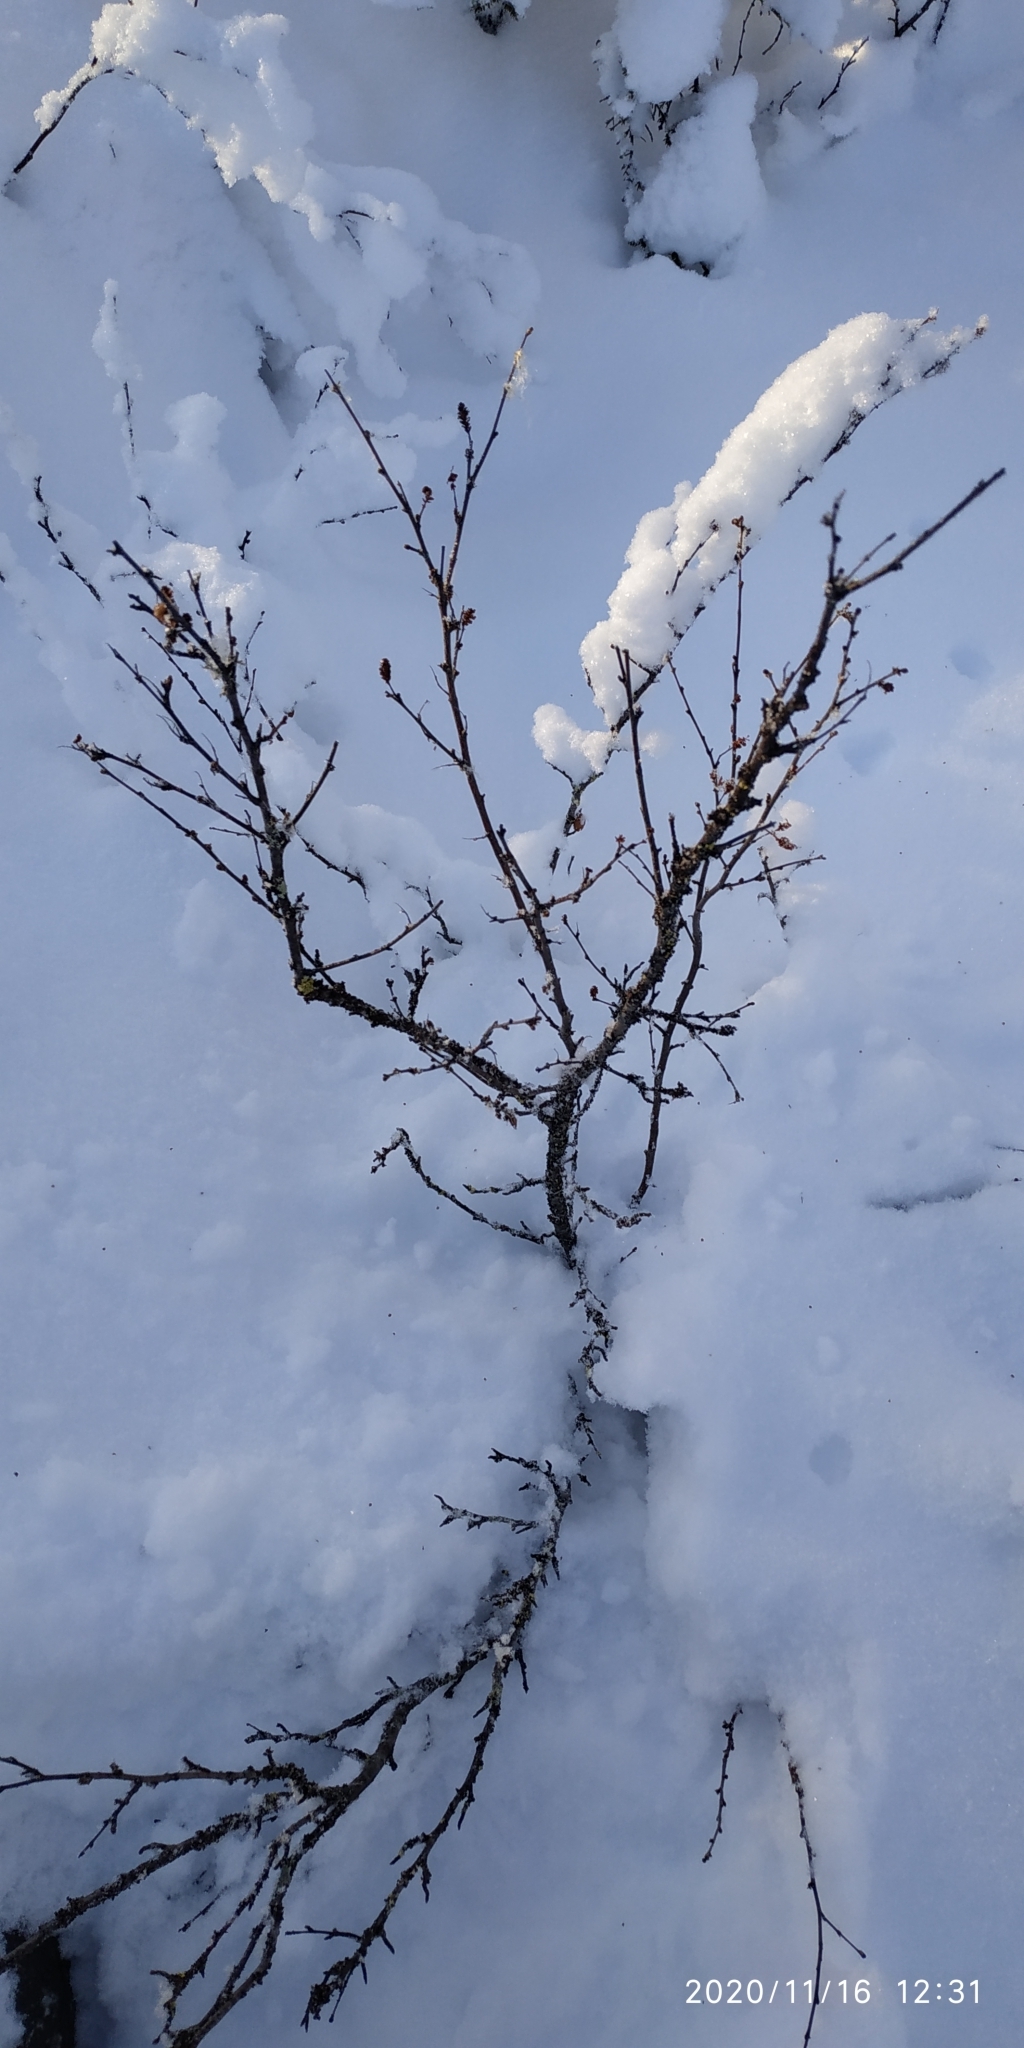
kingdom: Plantae
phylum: Tracheophyta
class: Magnoliopsida
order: Fagales
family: Betulaceae
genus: Betula
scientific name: Betula nana
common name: Arctic dwarf birch
